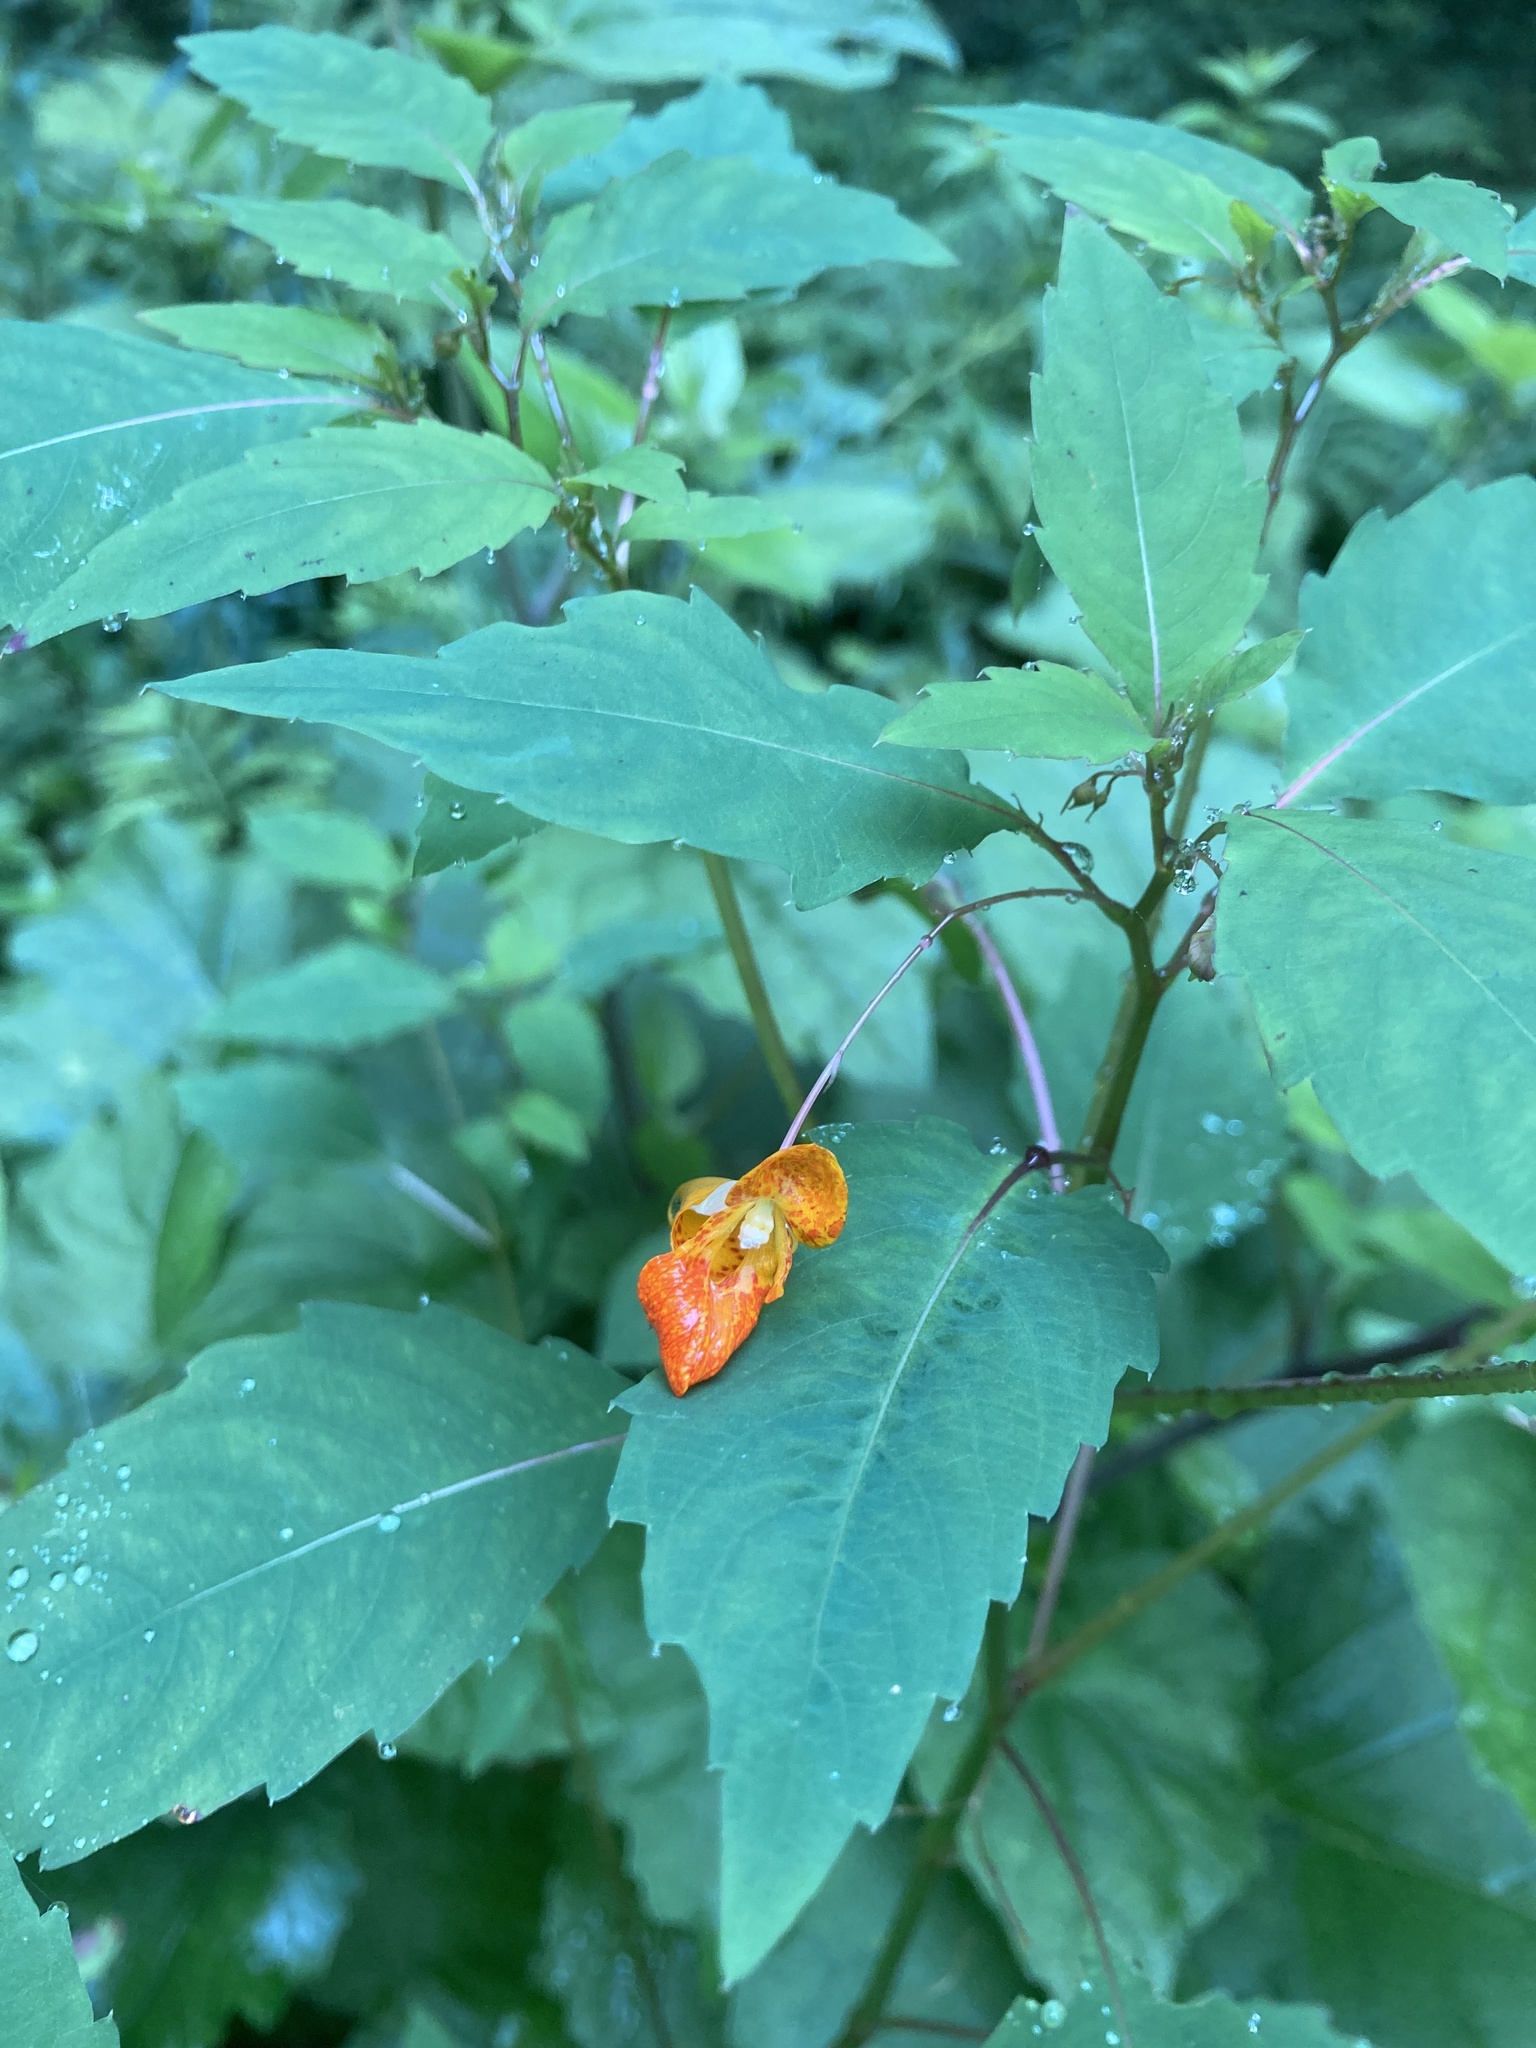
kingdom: Plantae
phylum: Tracheophyta
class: Magnoliopsida
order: Ericales
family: Balsaminaceae
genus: Impatiens
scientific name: Impatiens capensis
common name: Orange balsam
